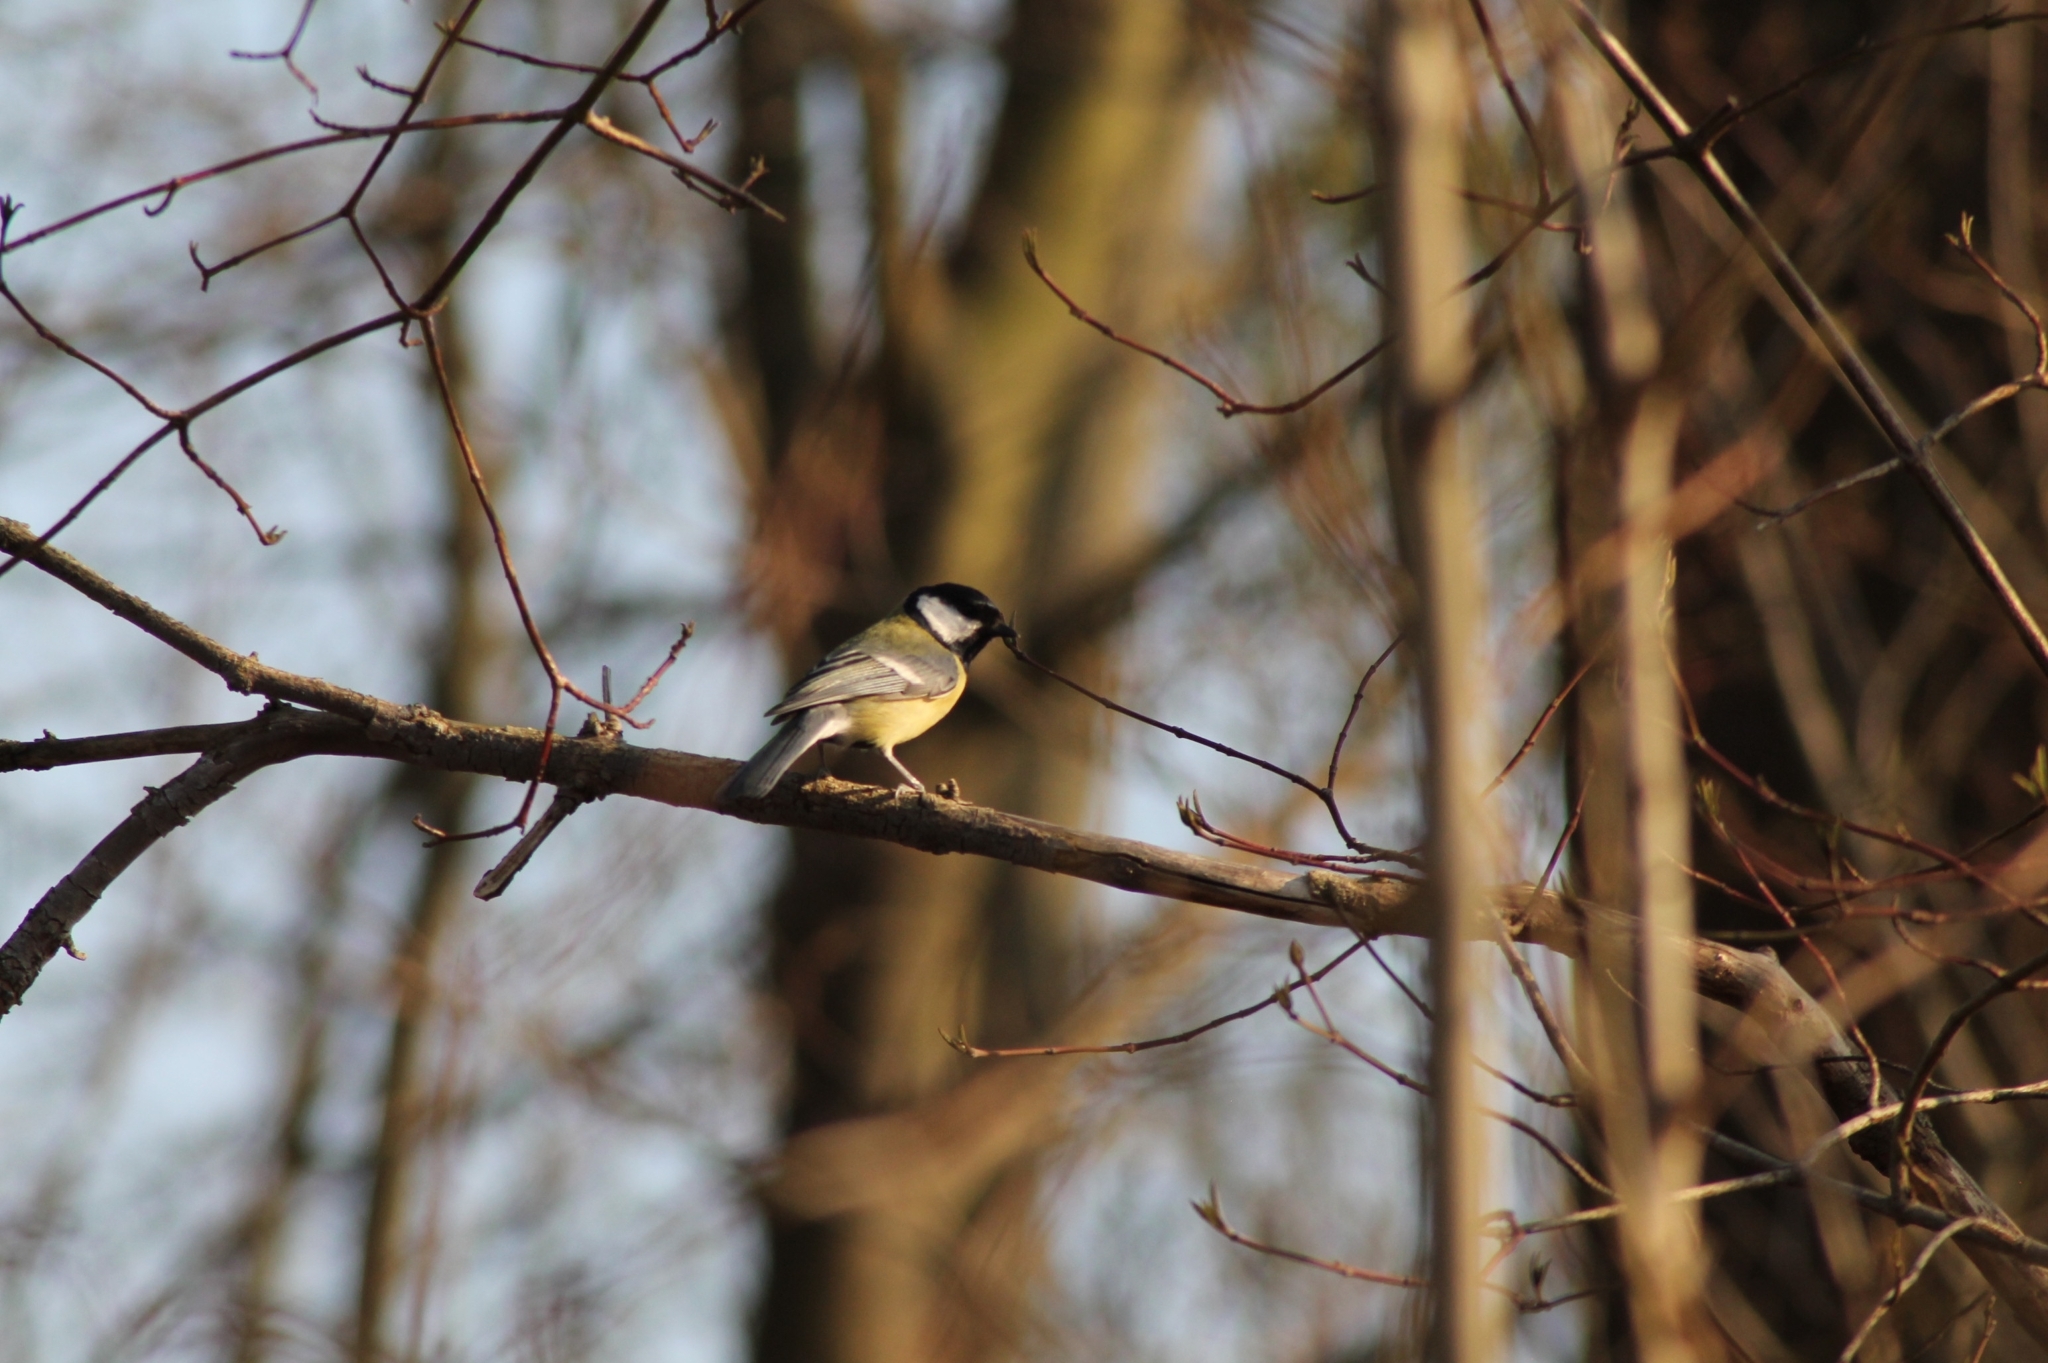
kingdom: Animalia
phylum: Chordata
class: Aves
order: Passeriformes
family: Paridae
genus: Parus
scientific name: Parus major
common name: Great tit
